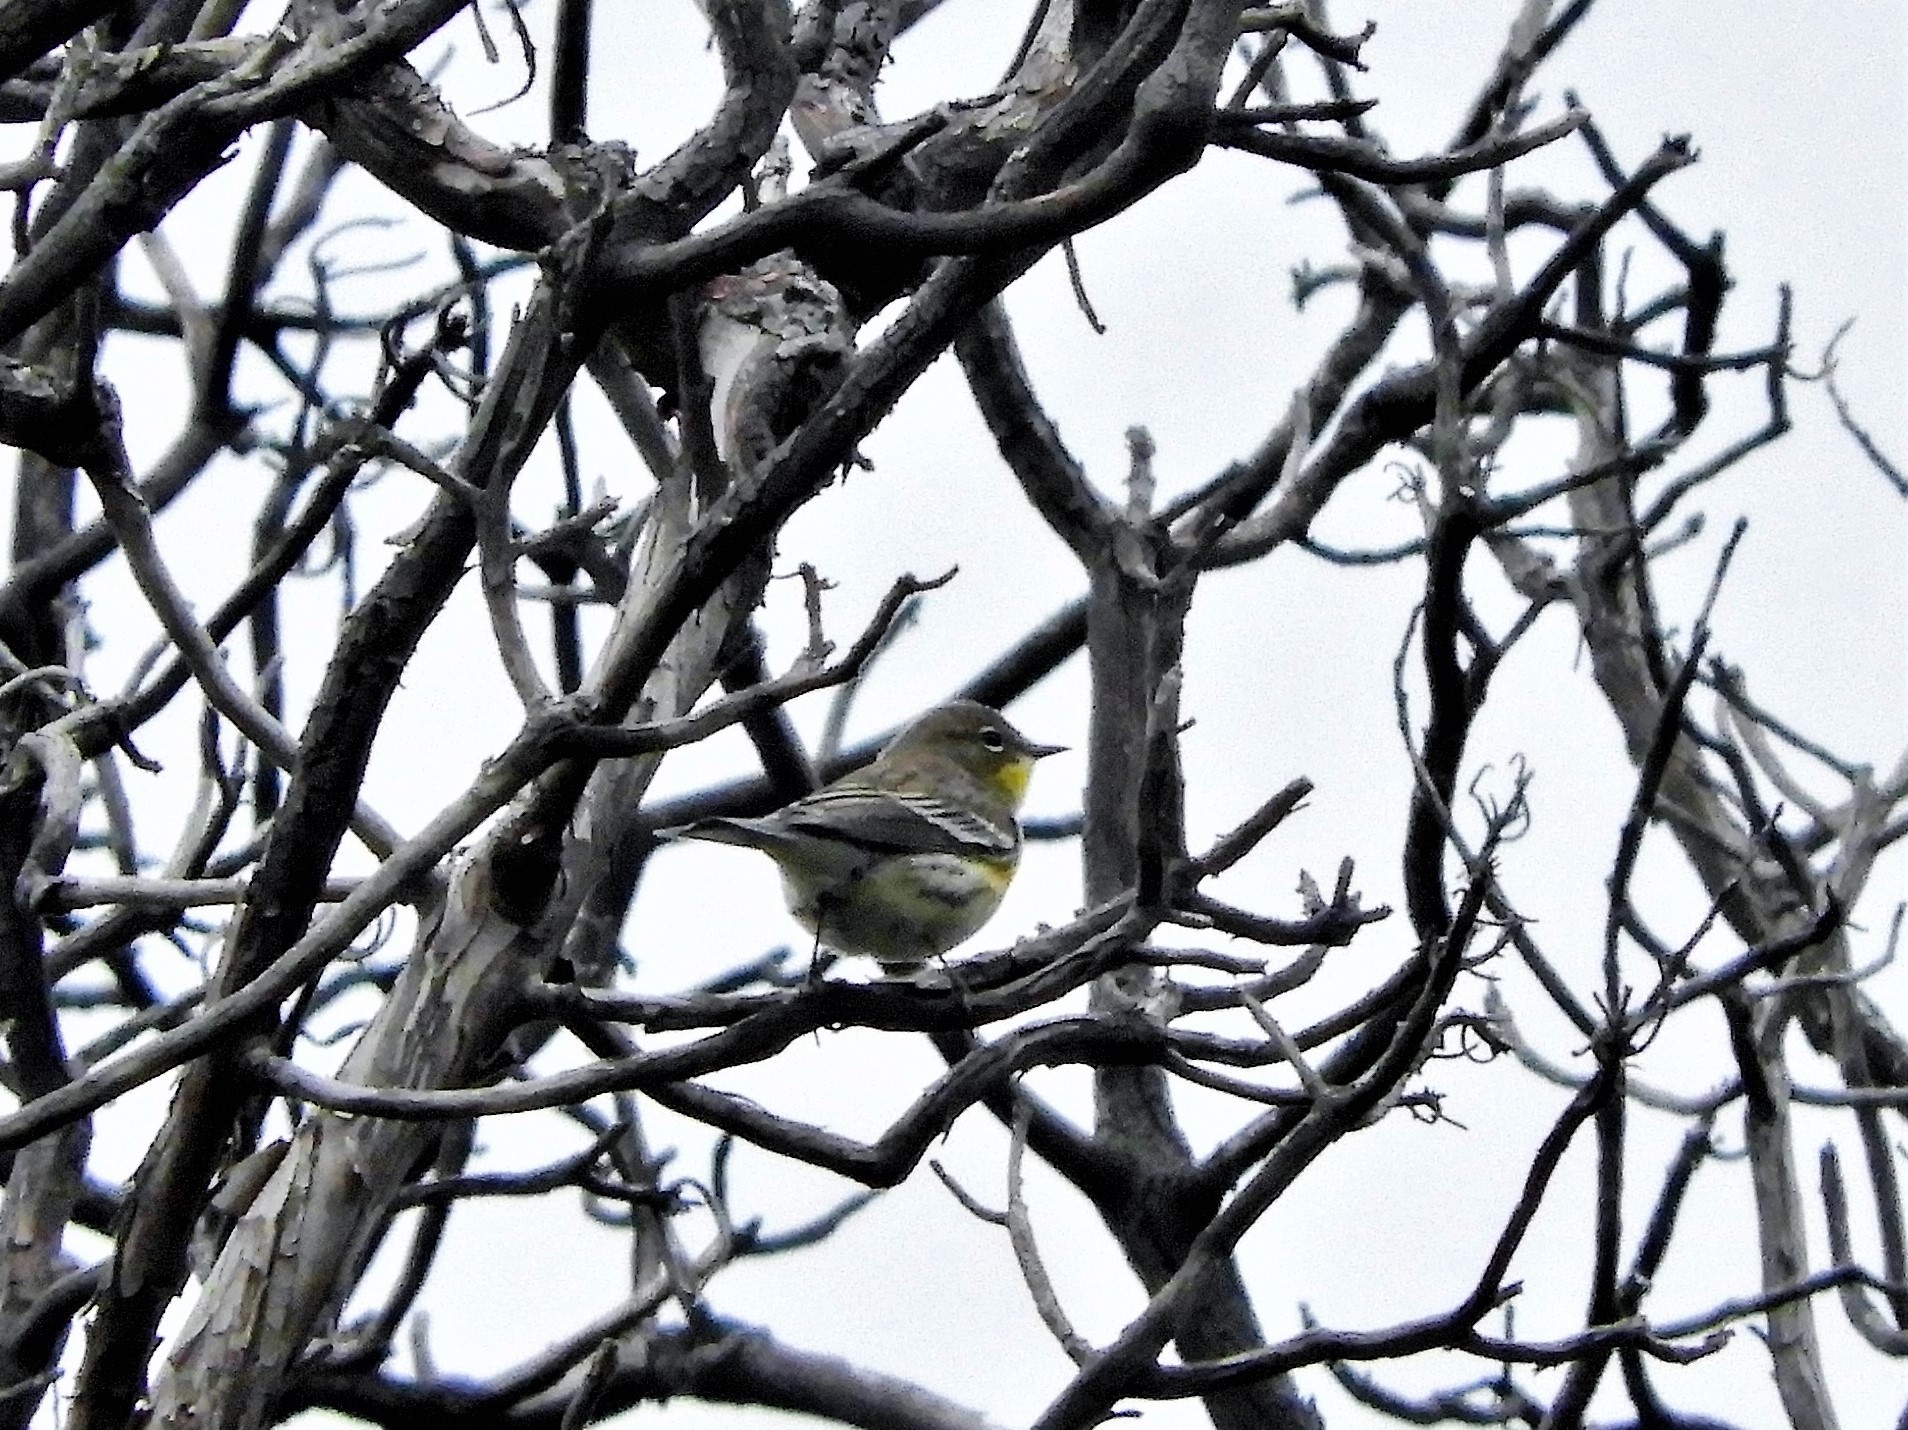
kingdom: Animalia
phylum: Chordata
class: Aves
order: Passeriformes
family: Parulidae
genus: Setophaga
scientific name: Setophaga coronata
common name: Myrtle warbler
